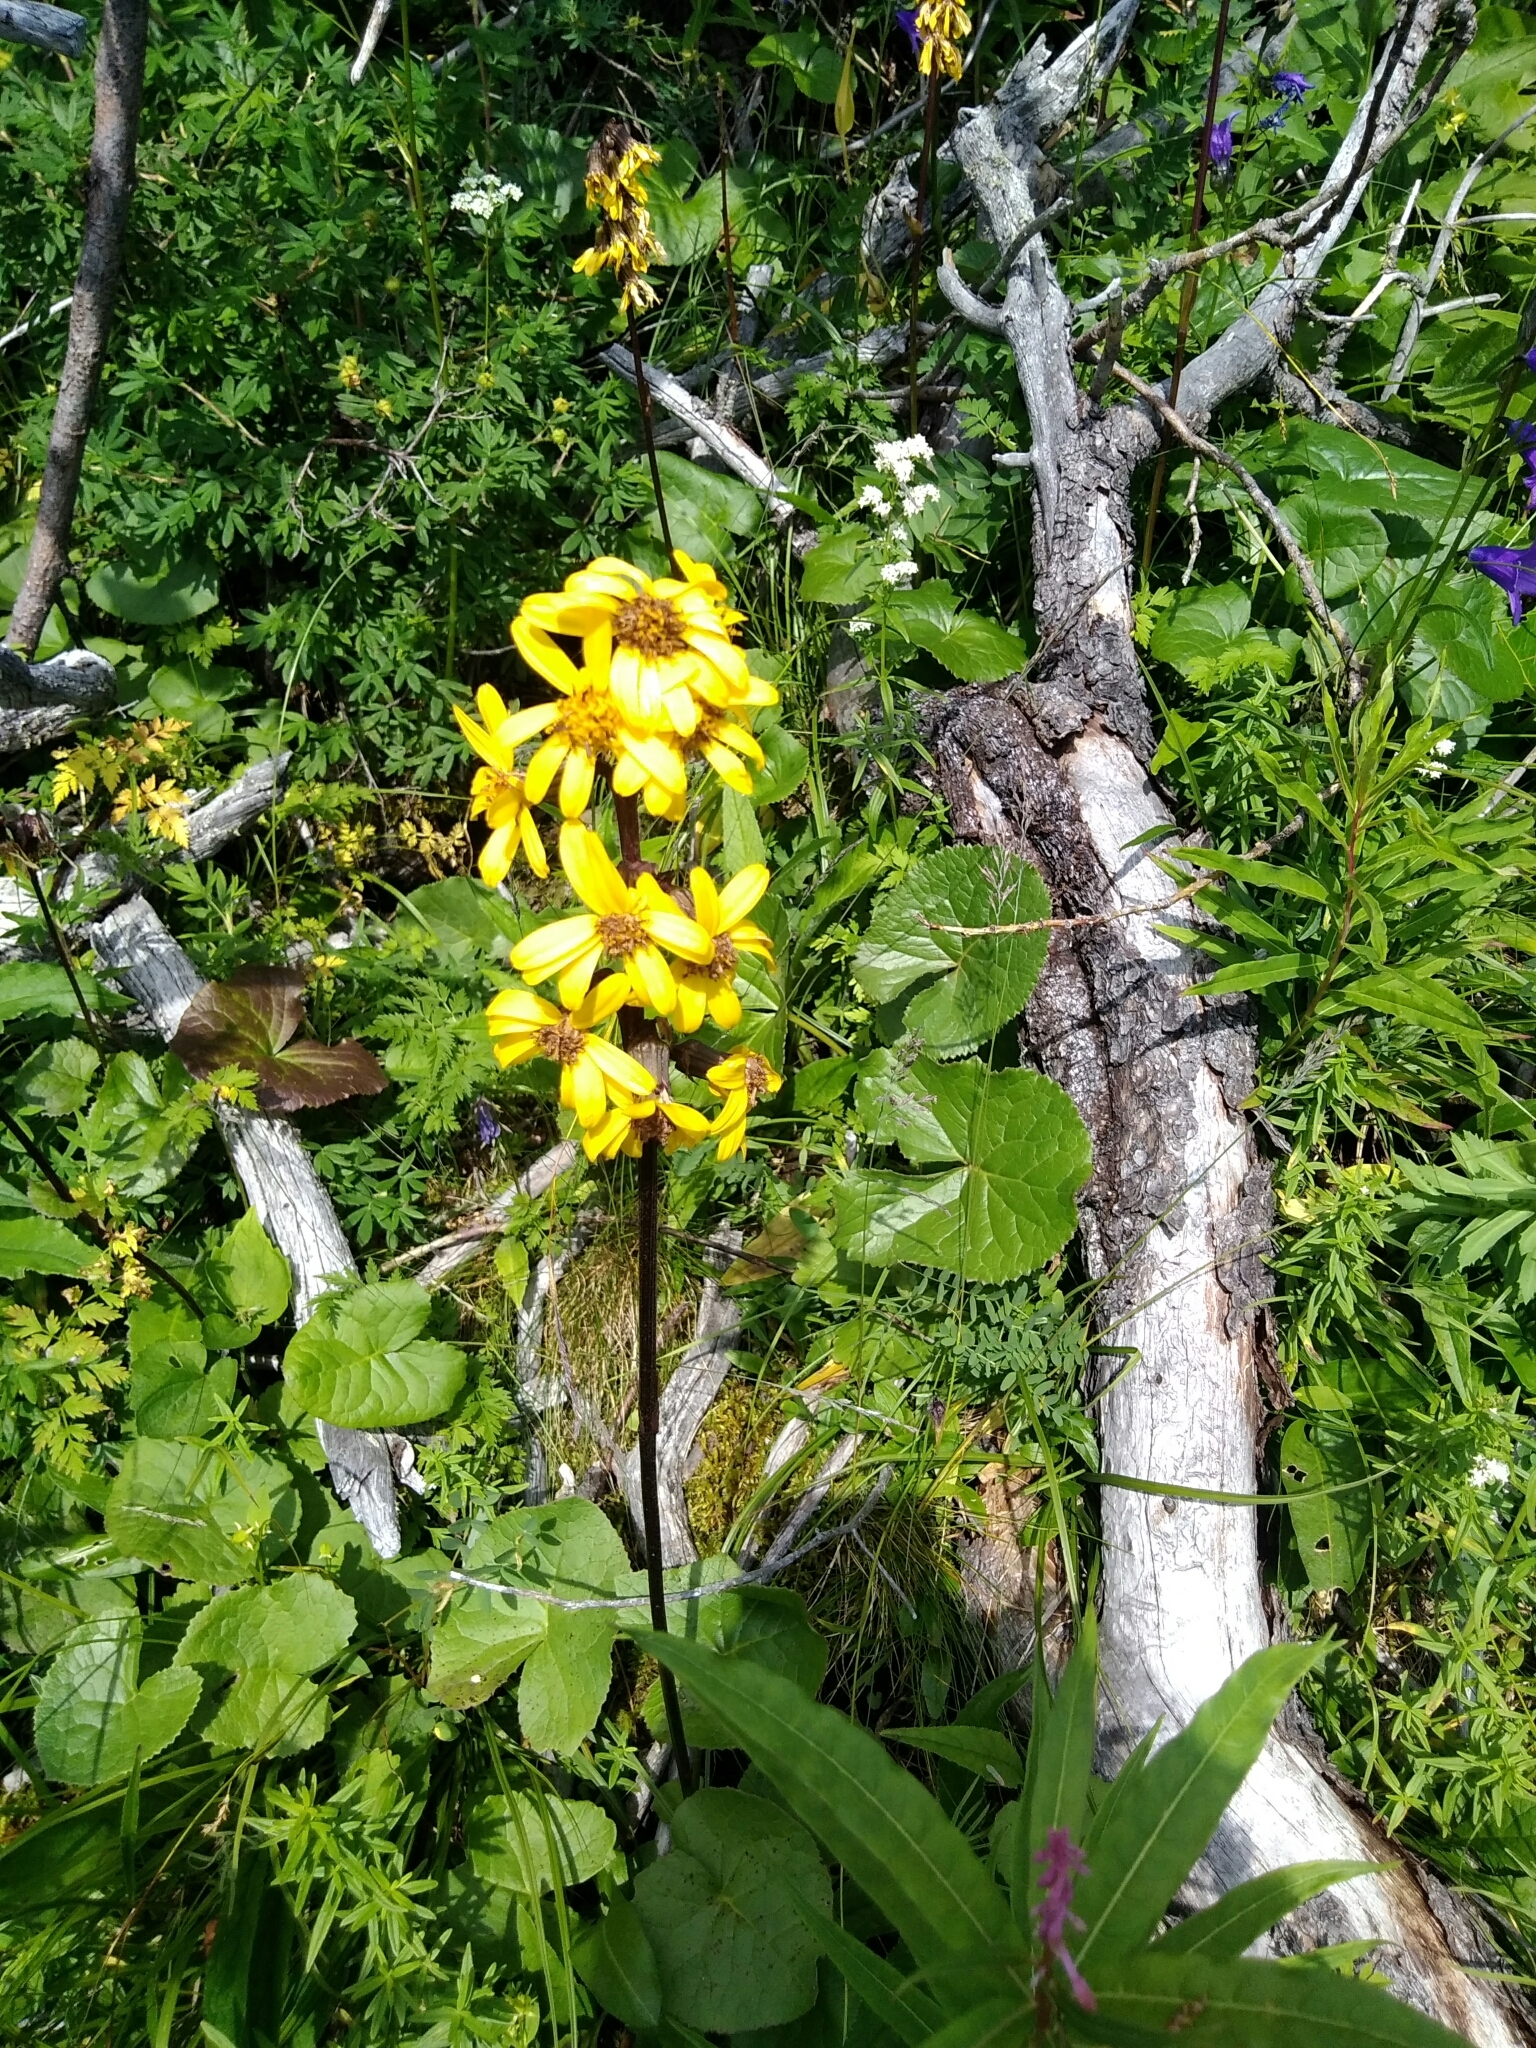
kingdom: Plantae
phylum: Tracheophyta
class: Magnoliopsida
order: Asterales
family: Asteraceae
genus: Ligularia
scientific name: Ligularia sibirica
